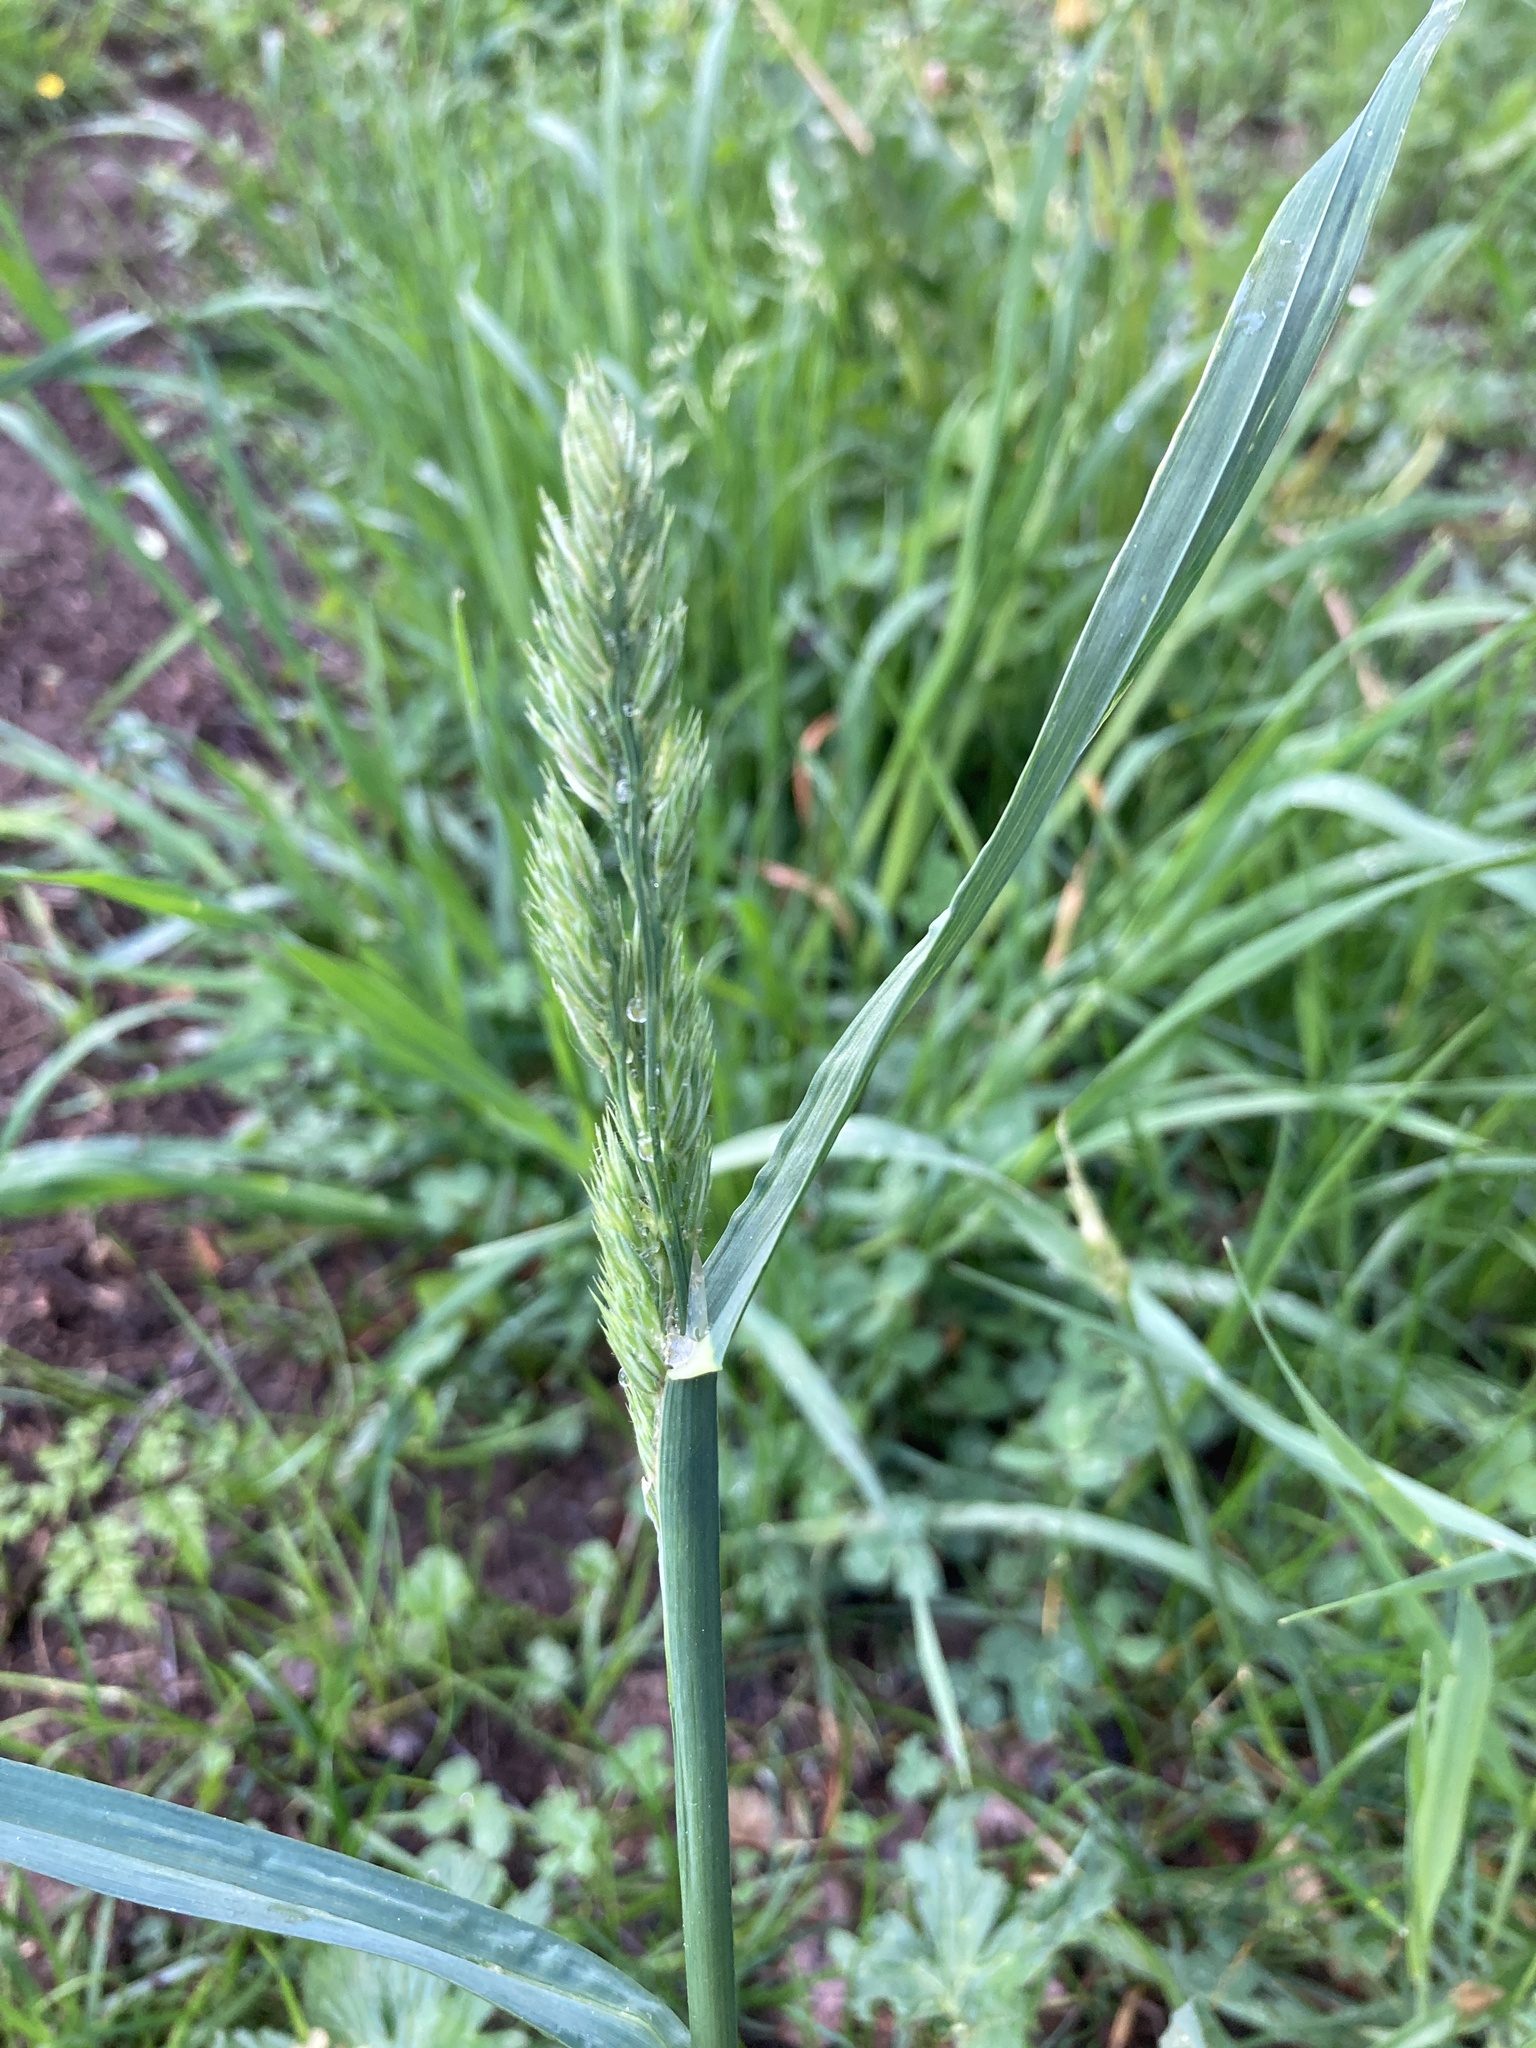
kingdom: Plantae
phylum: Tracheophyta
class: Liliopsida
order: Poales
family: Poaceae
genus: Dactylis
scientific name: Dactylis glomerata
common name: Orchardgrass
